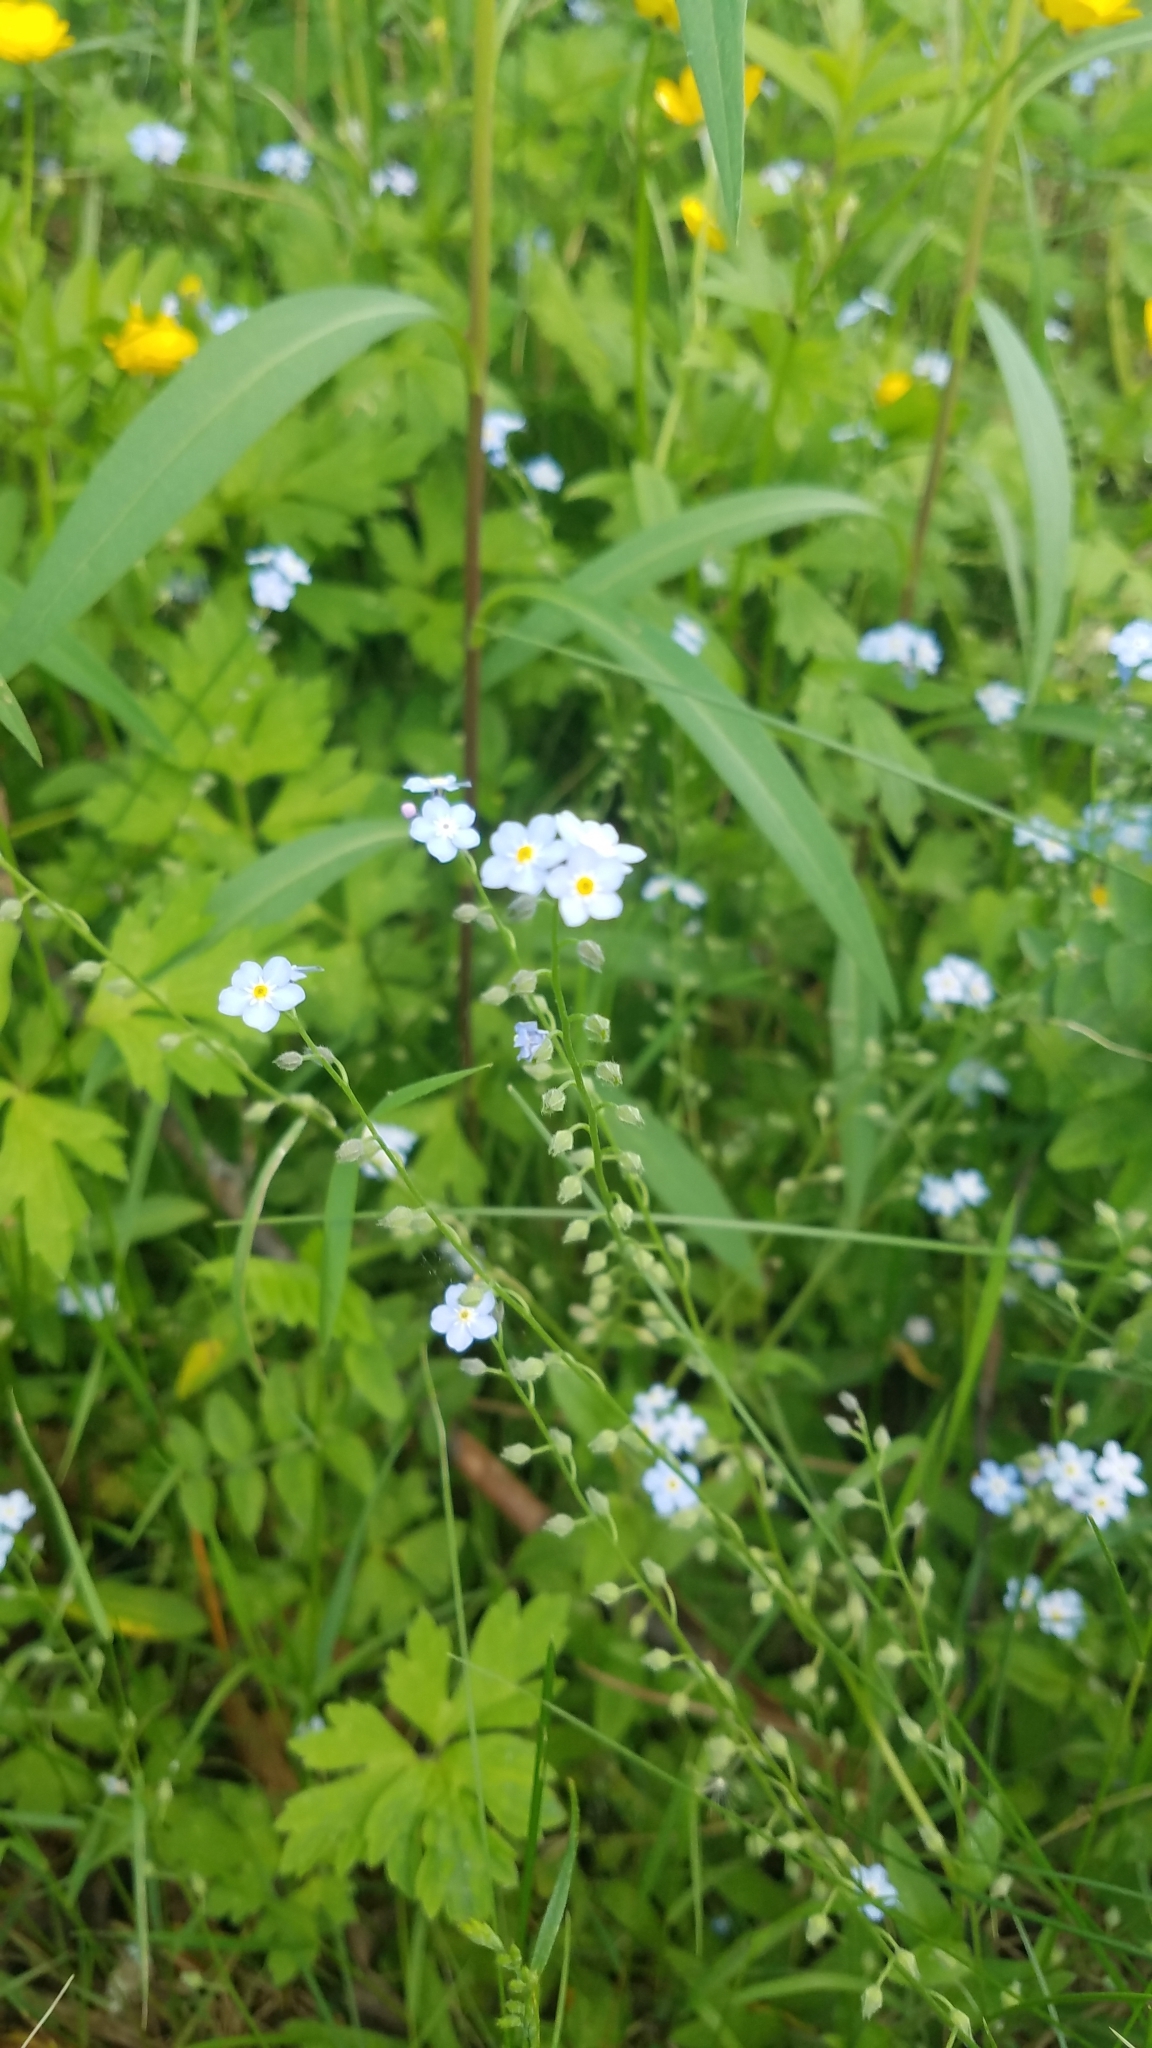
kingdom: Plantae
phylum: Tracheophyta
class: Magnoliopsida
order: Boraginales
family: Boraginaceae
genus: Myosotis
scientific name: Myosotis sylvatica
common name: Wood forget-me-not
